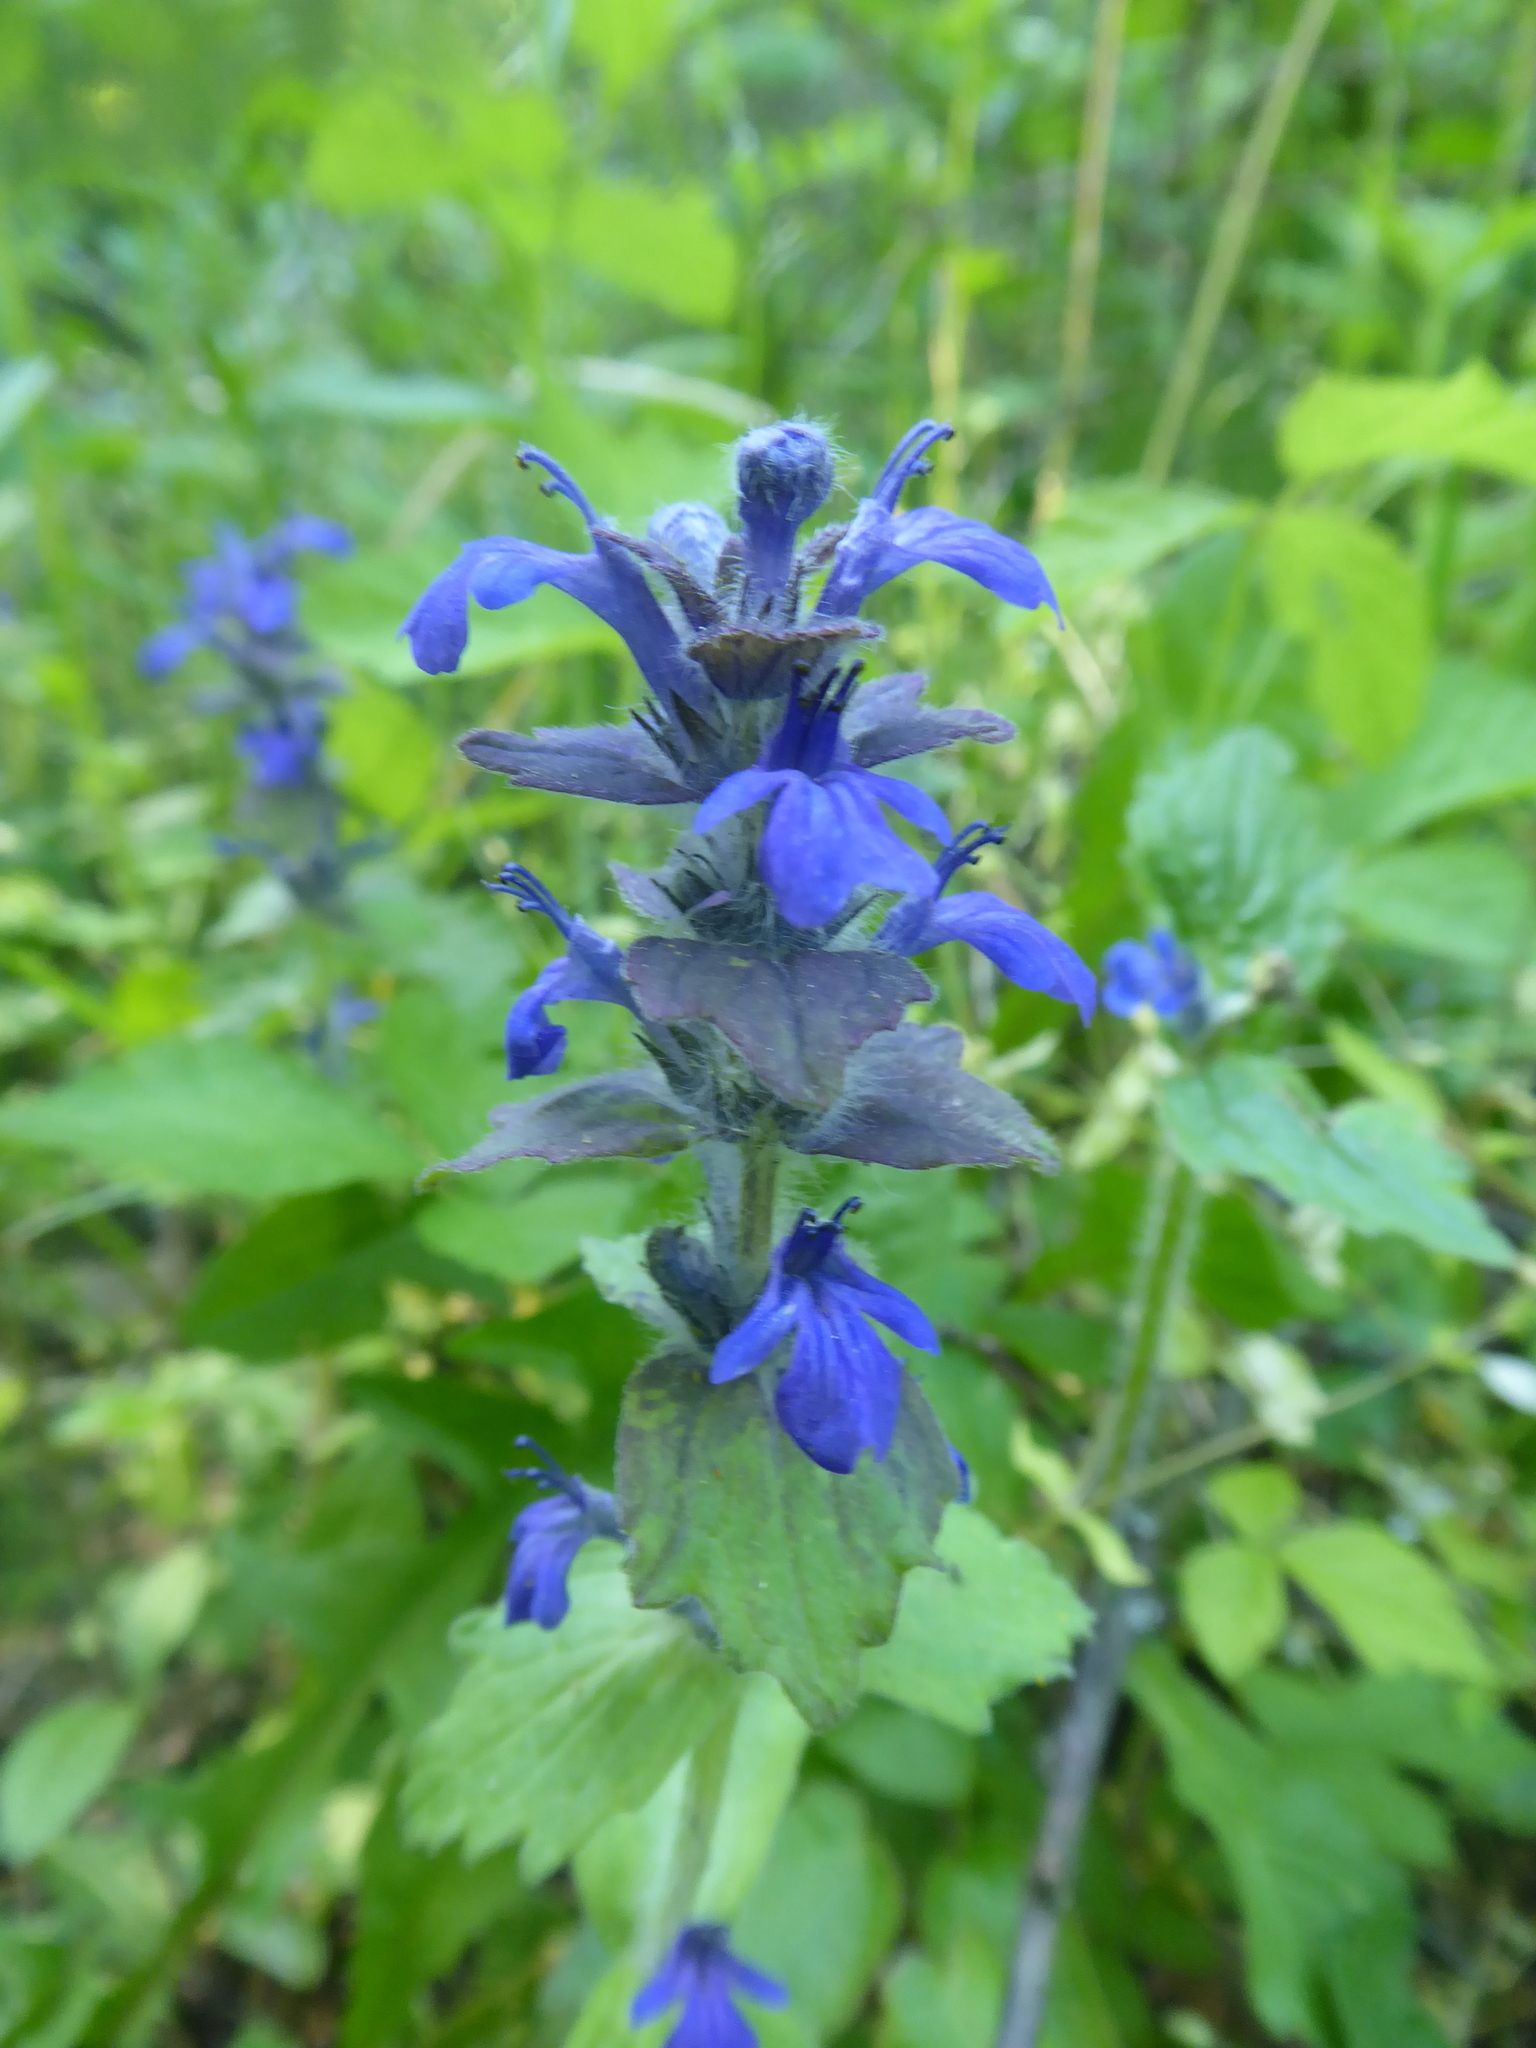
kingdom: Plantae
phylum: Tracheophyta
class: Magnoliopsida
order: Lamiales
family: Lamiaceae
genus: Ajuga
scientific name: Ajuga genevensis
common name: Blue bugle
